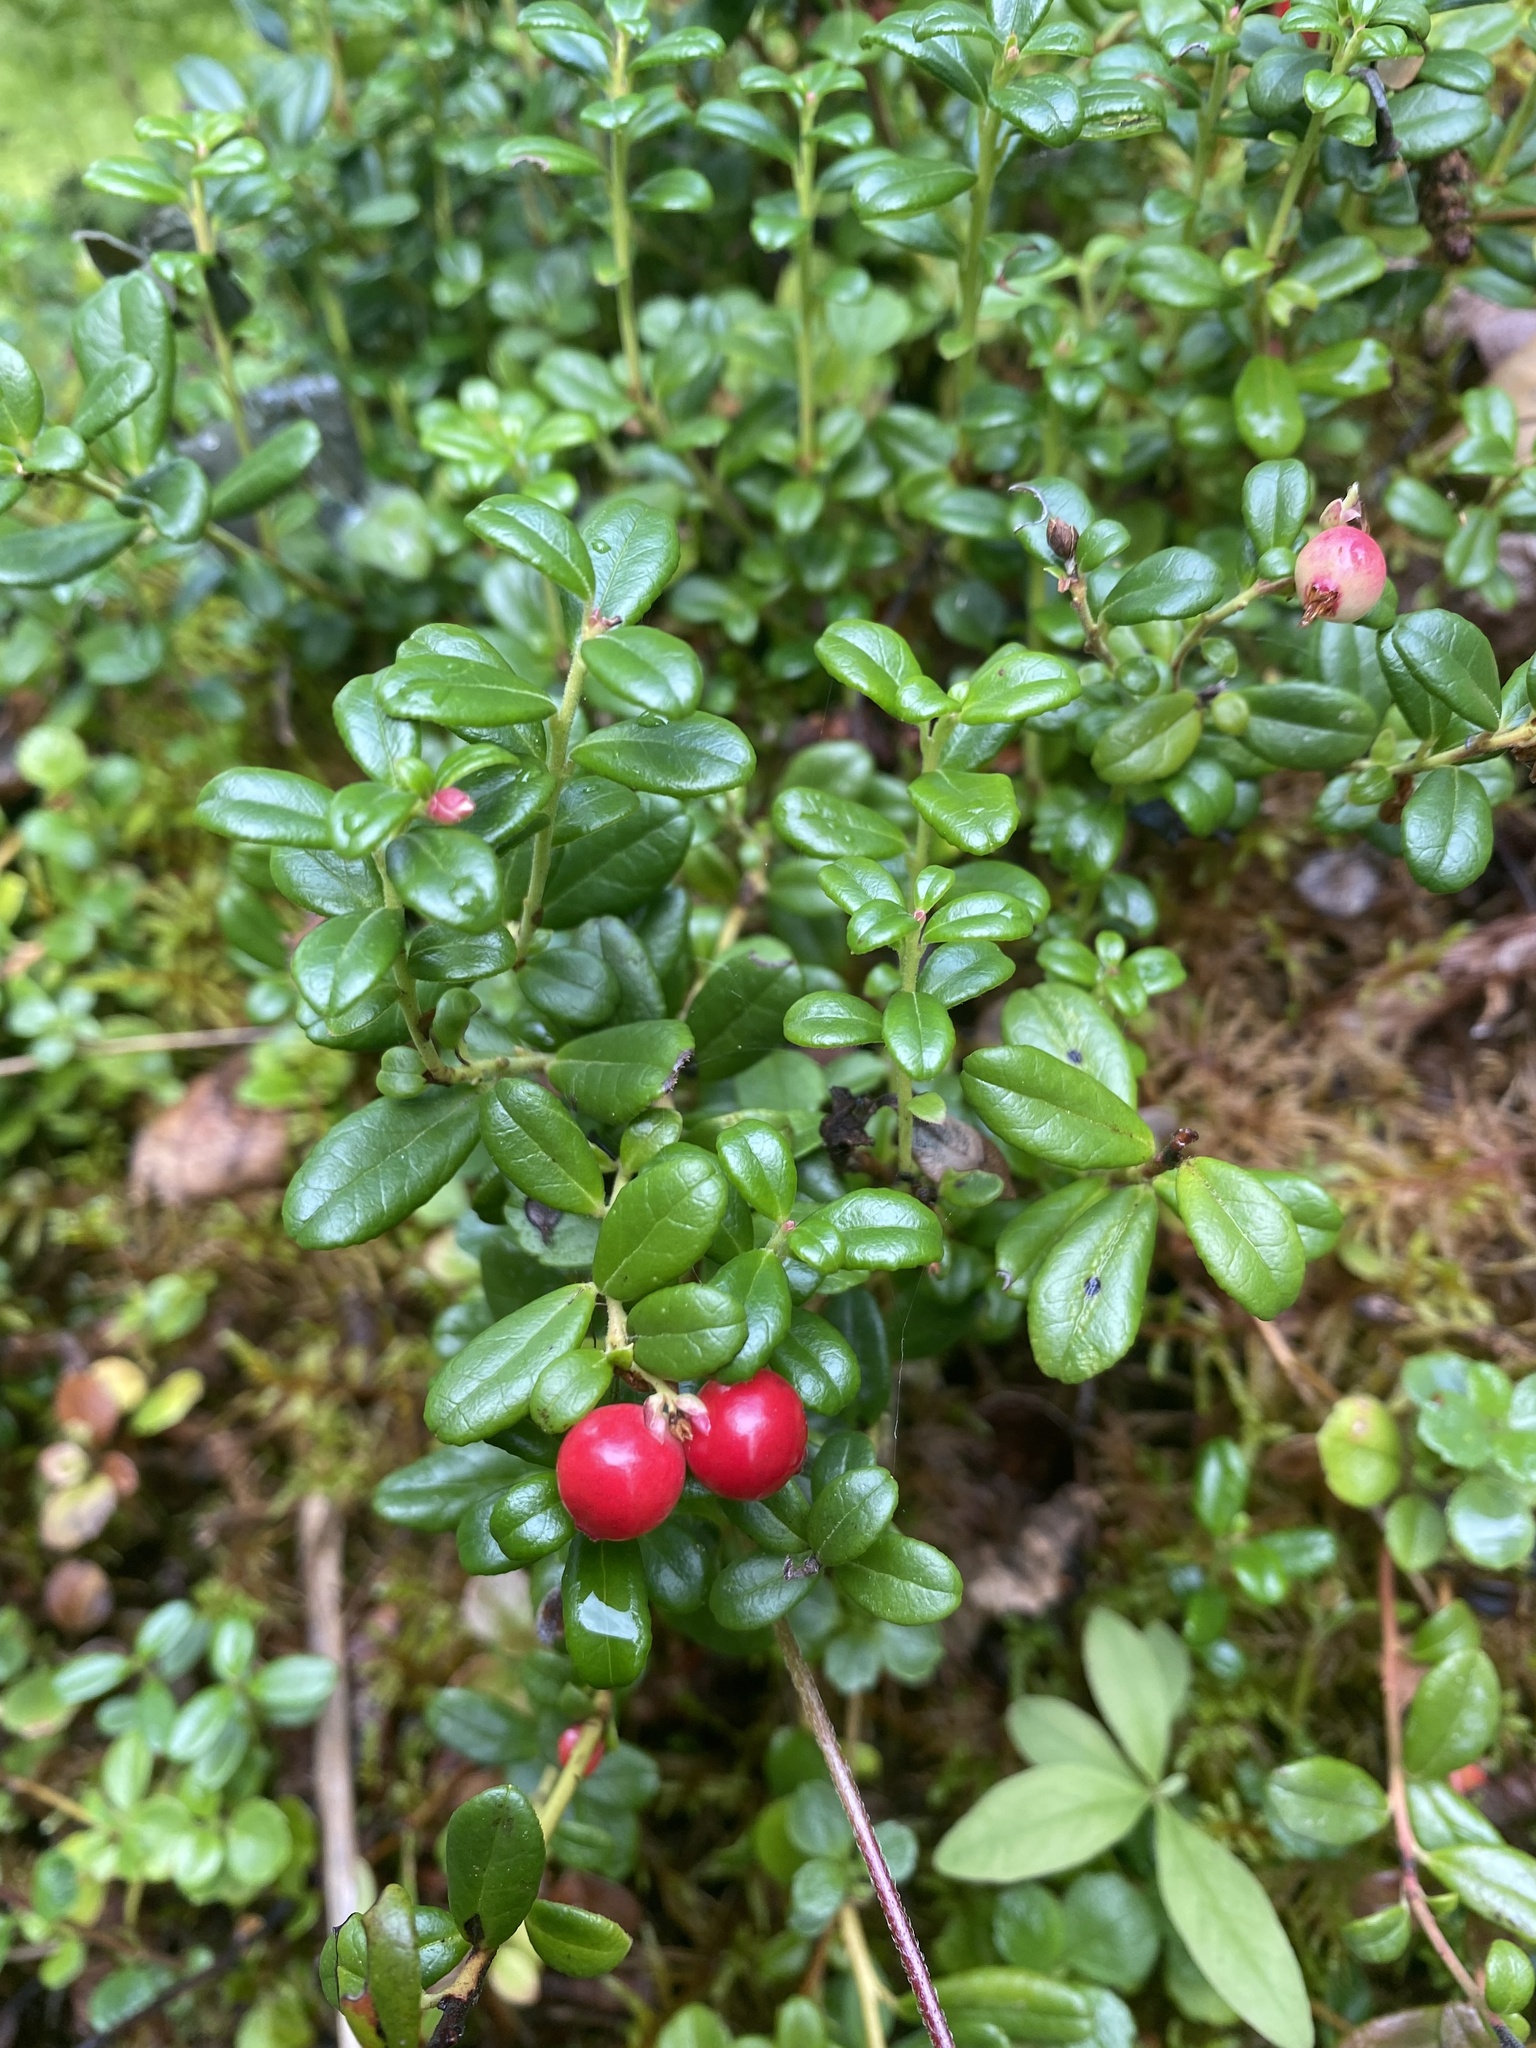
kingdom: Plantae
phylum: Tracheophyta
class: Magnoliopsida
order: Ericales
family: Ericaceae
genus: Vaccinium
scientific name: Vaccinium vitis-idaea
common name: Cowberry
